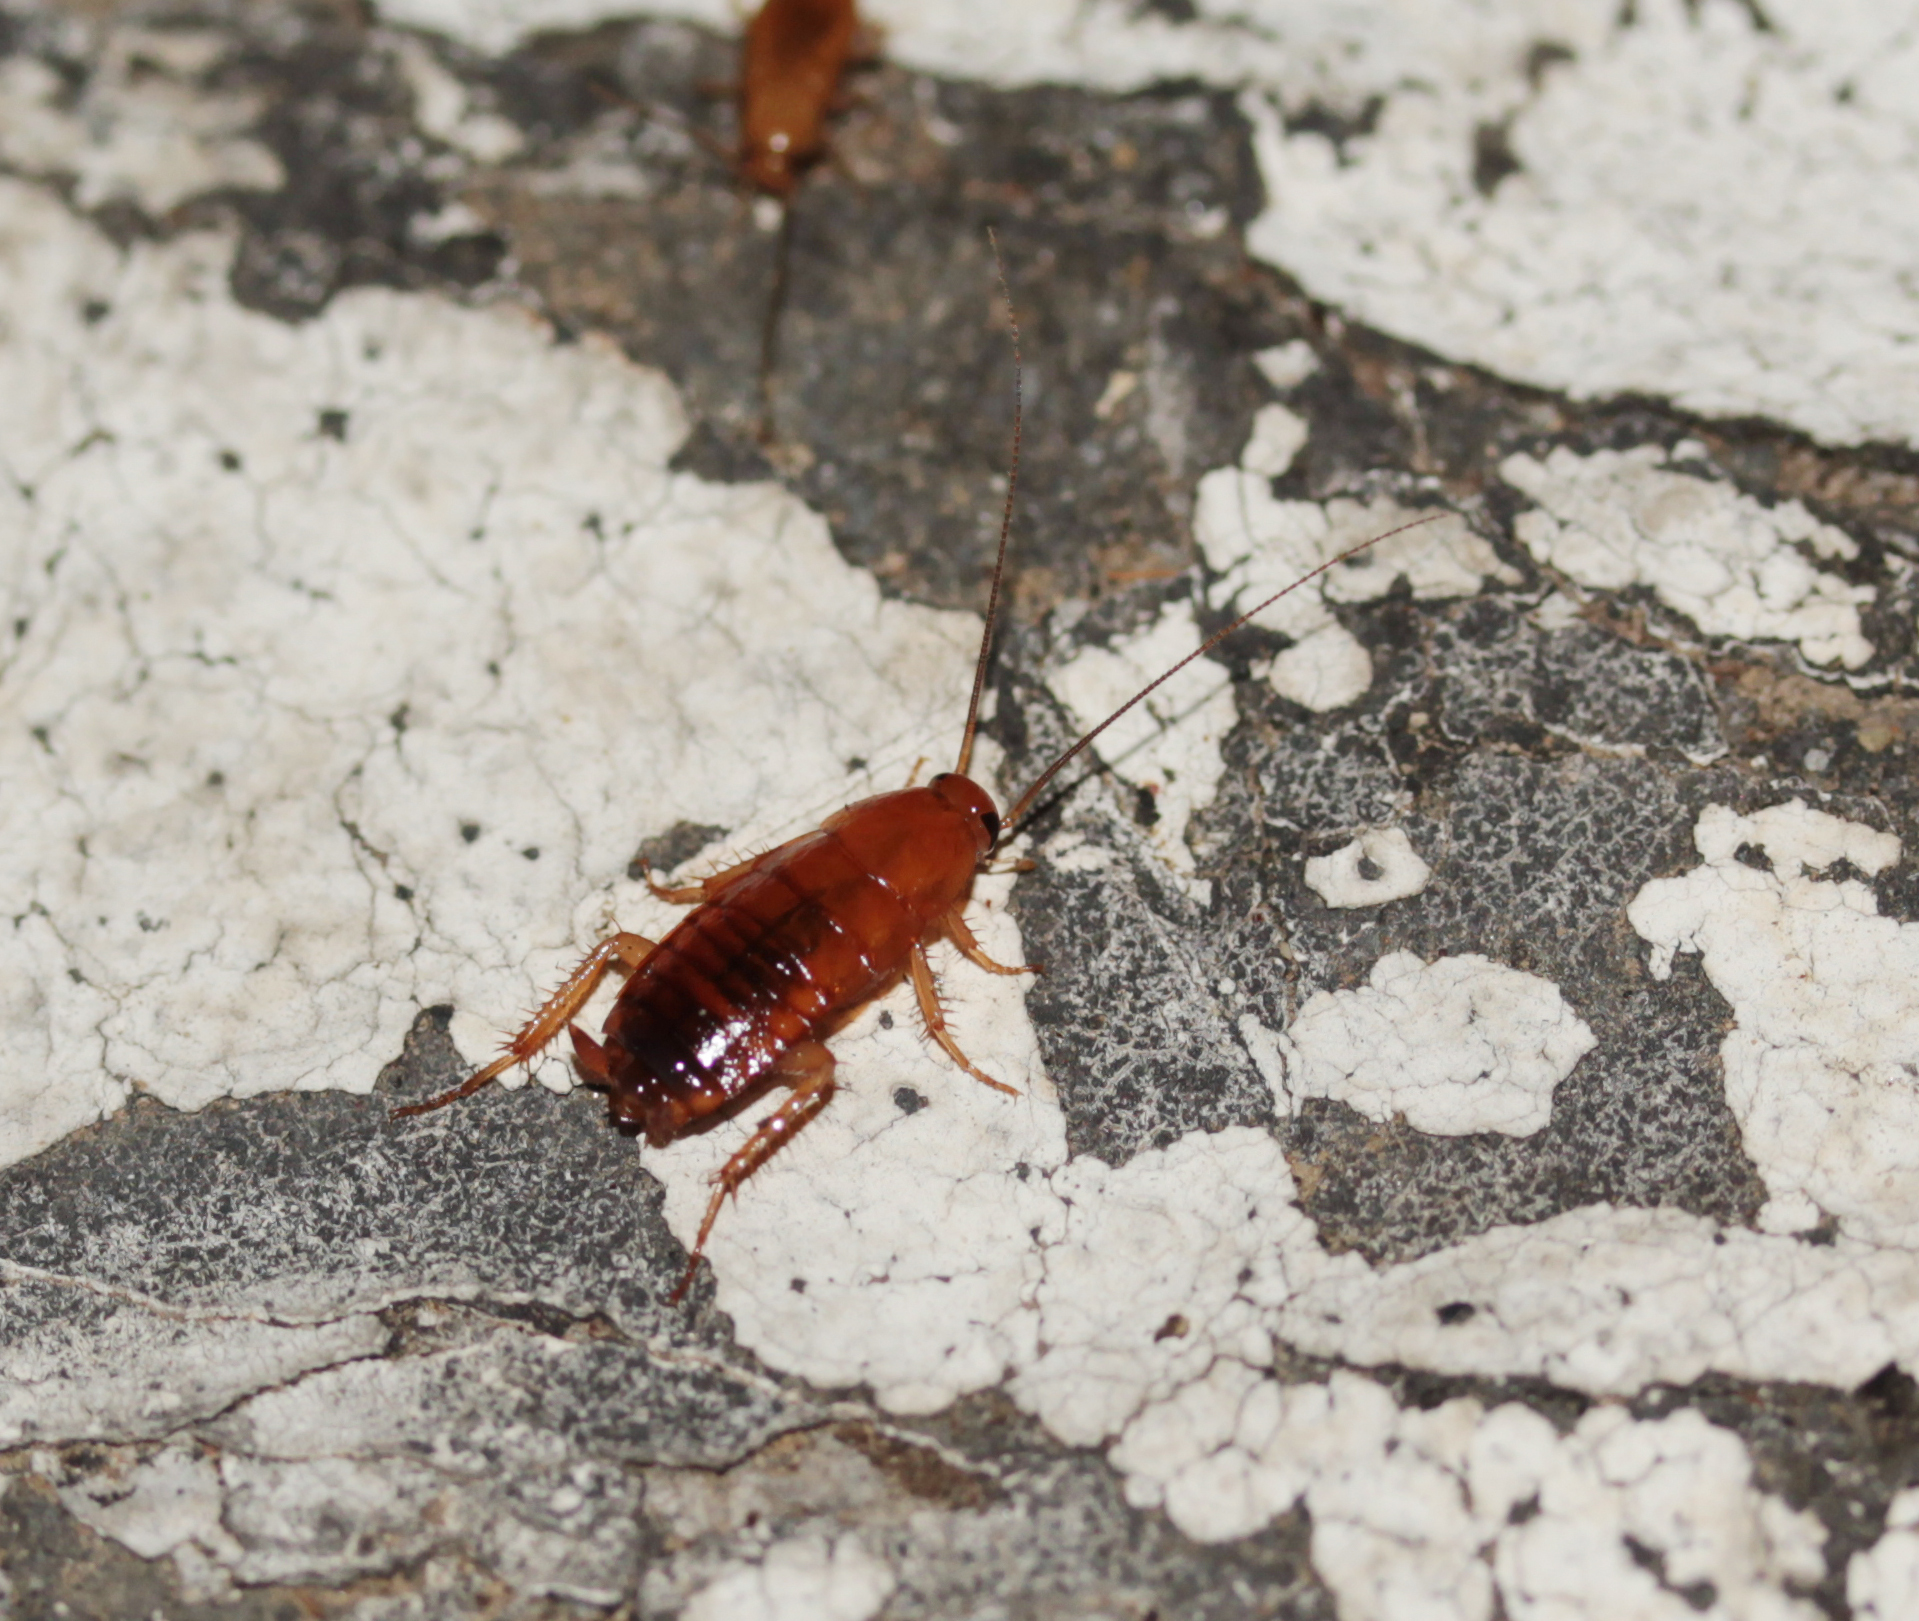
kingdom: Animalia
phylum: Arthropoda
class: Insecta
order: Blattodea
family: Blattidae
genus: Periplaneta
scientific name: Periplaneta lateralis
